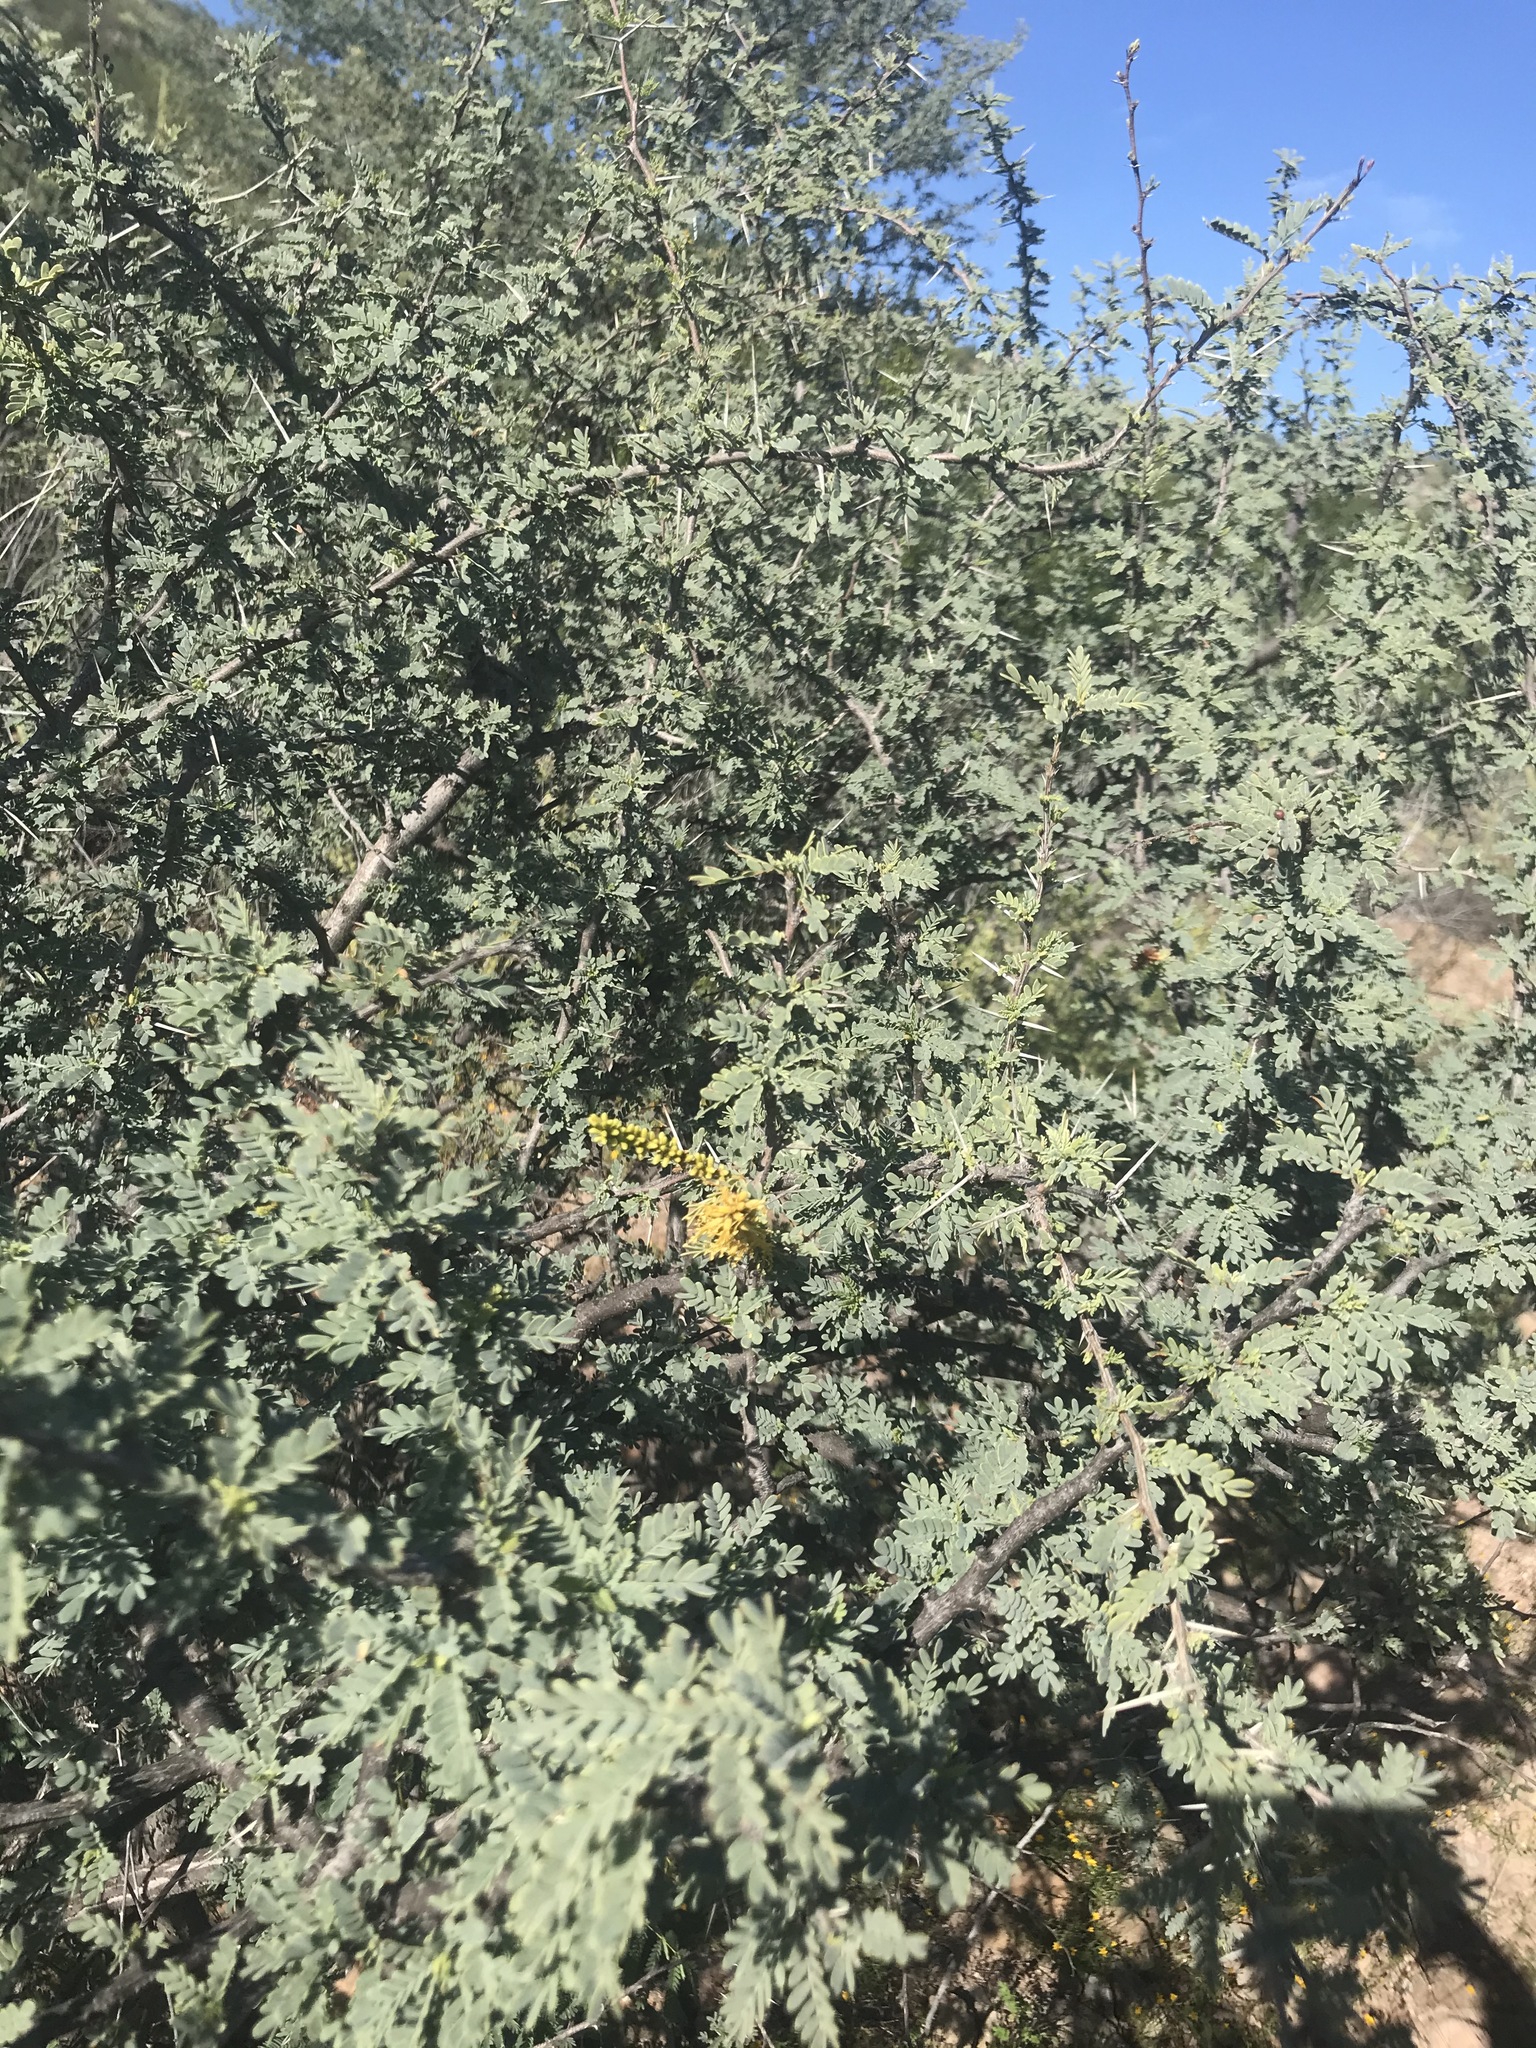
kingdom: Plantae
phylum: Tracheophyta
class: Magnoliopsida
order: Fabales
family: Fabaceae
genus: Prosopis
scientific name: Prosopis palmeri
